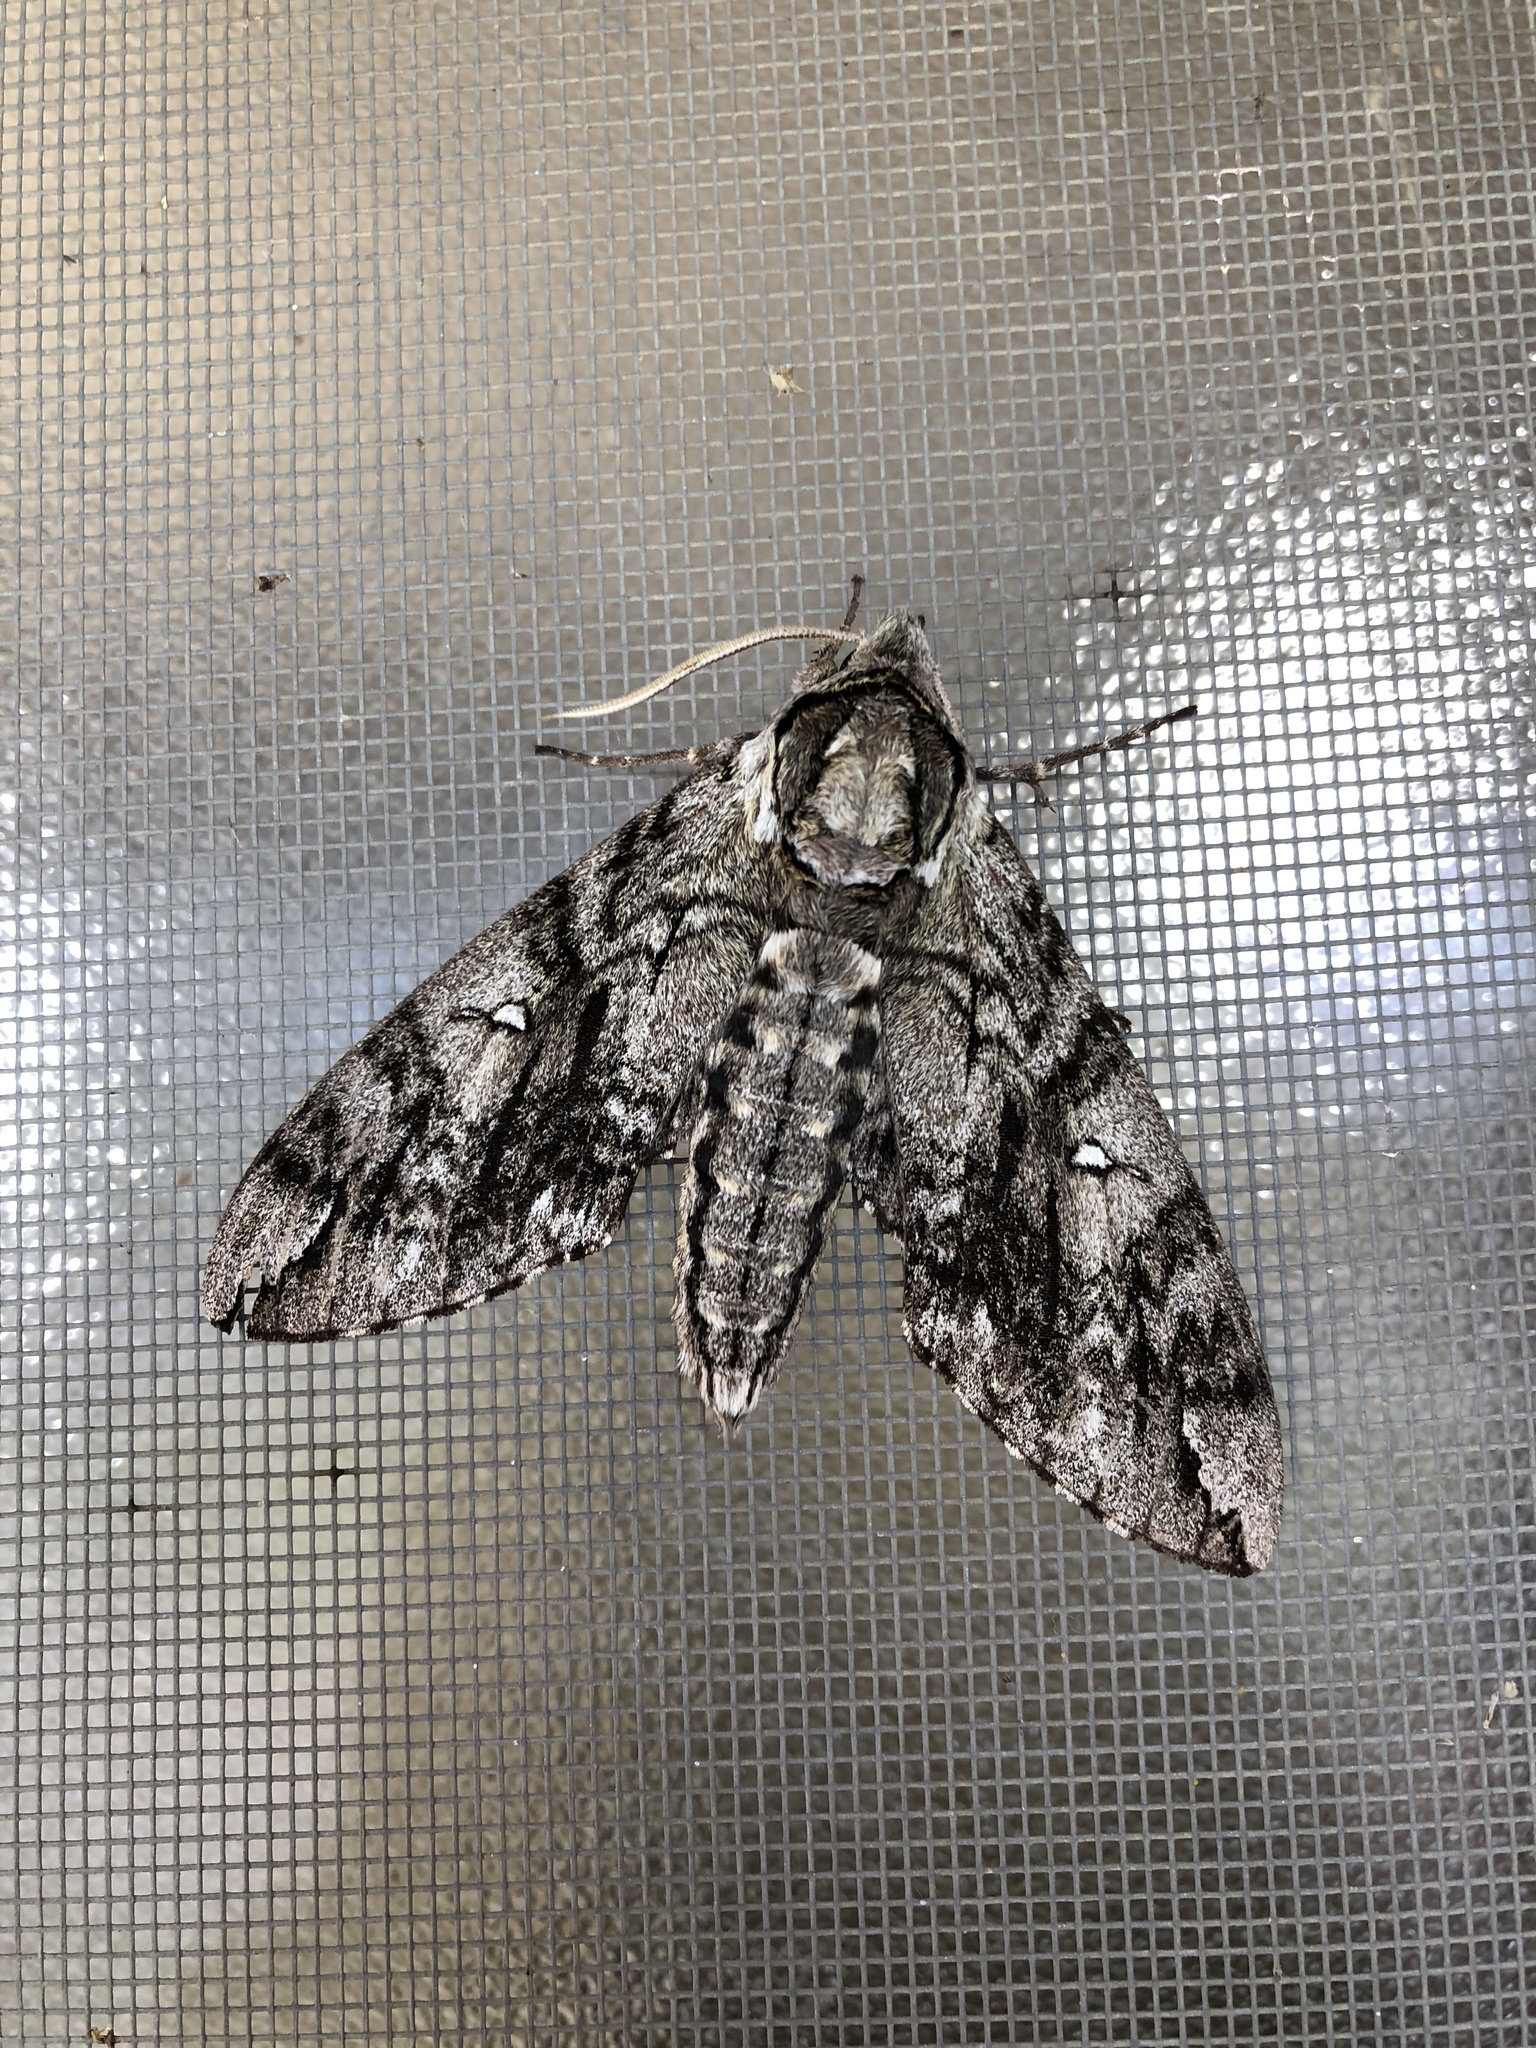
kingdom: Animalia
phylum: Arthropoda
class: Insecta
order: Lepidoptera
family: Sphingidae
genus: Ceratomia
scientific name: Ceratomia undulosa
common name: Waved sphinx
